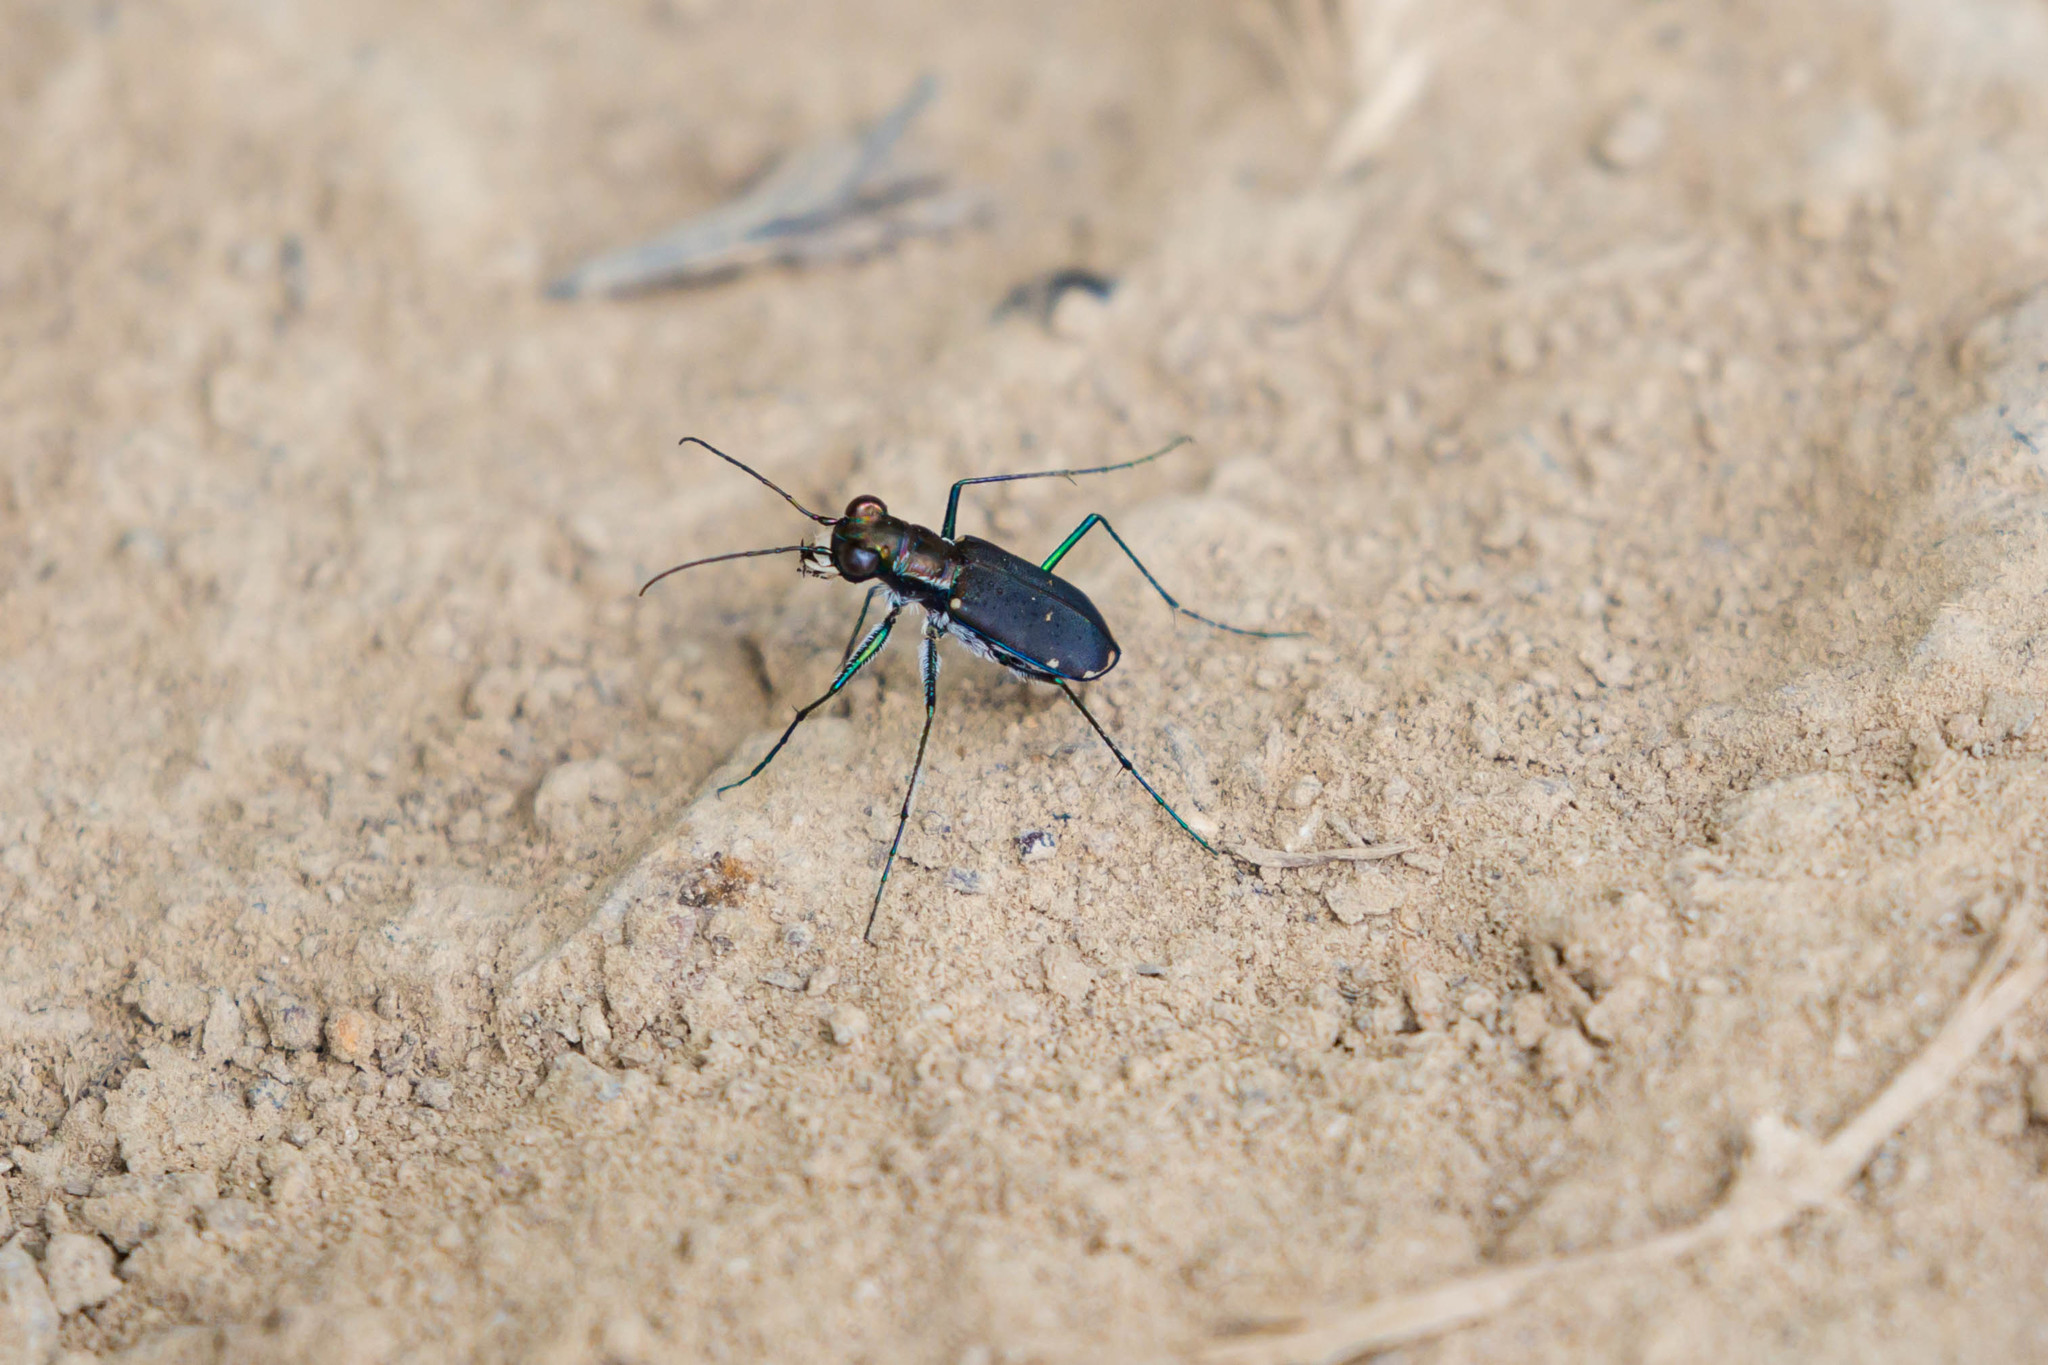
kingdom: Animalia
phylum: Arthropoda
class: Insecta
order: Coleoptera
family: Carabidae
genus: Cicindela
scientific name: Cicindela rufiventris
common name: Eastern red-bellied tiger beetle
